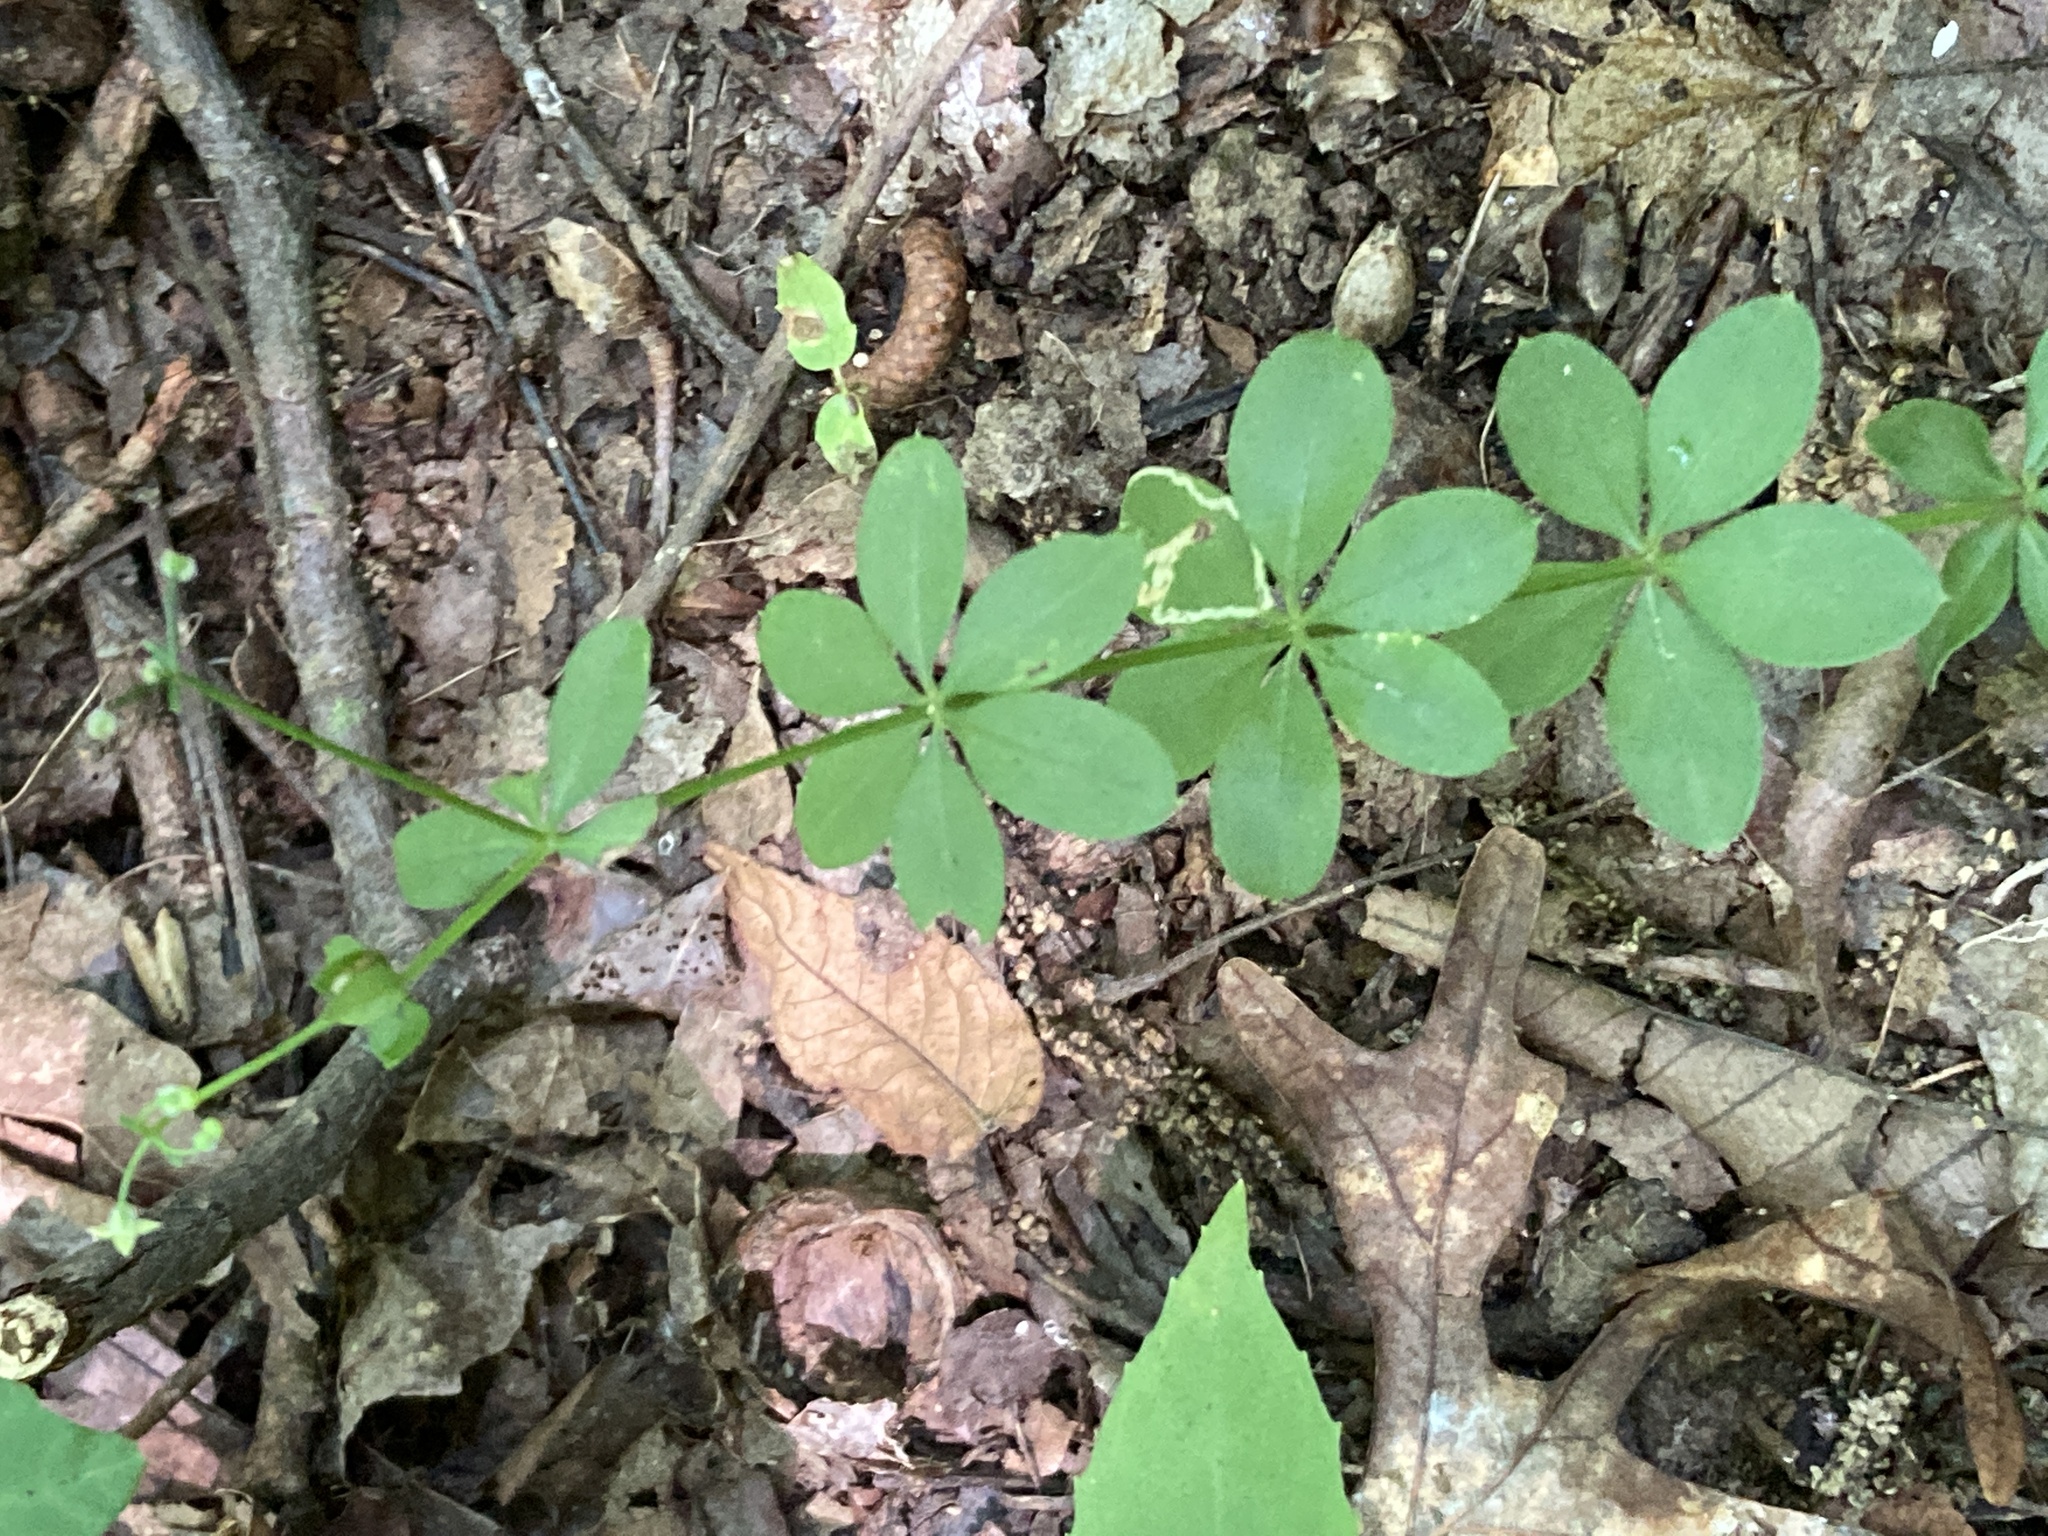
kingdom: Plantae
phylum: Tracheophyta
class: Magnoliopsida
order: Gentianales
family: Rubiaceae
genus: Galium
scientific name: Galium triflorum
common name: Fragrant bedstraw
